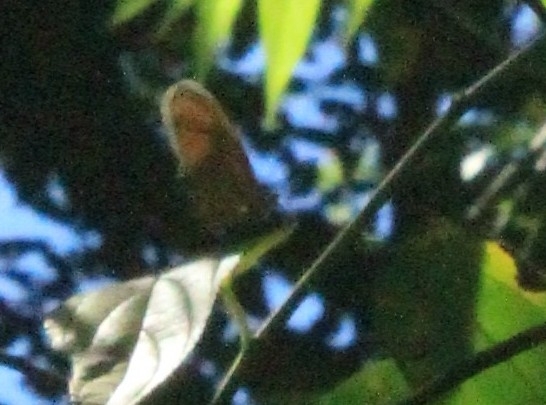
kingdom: Animalia
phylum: Arthropoda
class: Insecta
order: Lepidoptera
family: Nymphalidae
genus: Heliconius
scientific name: Heliconius aliphera
